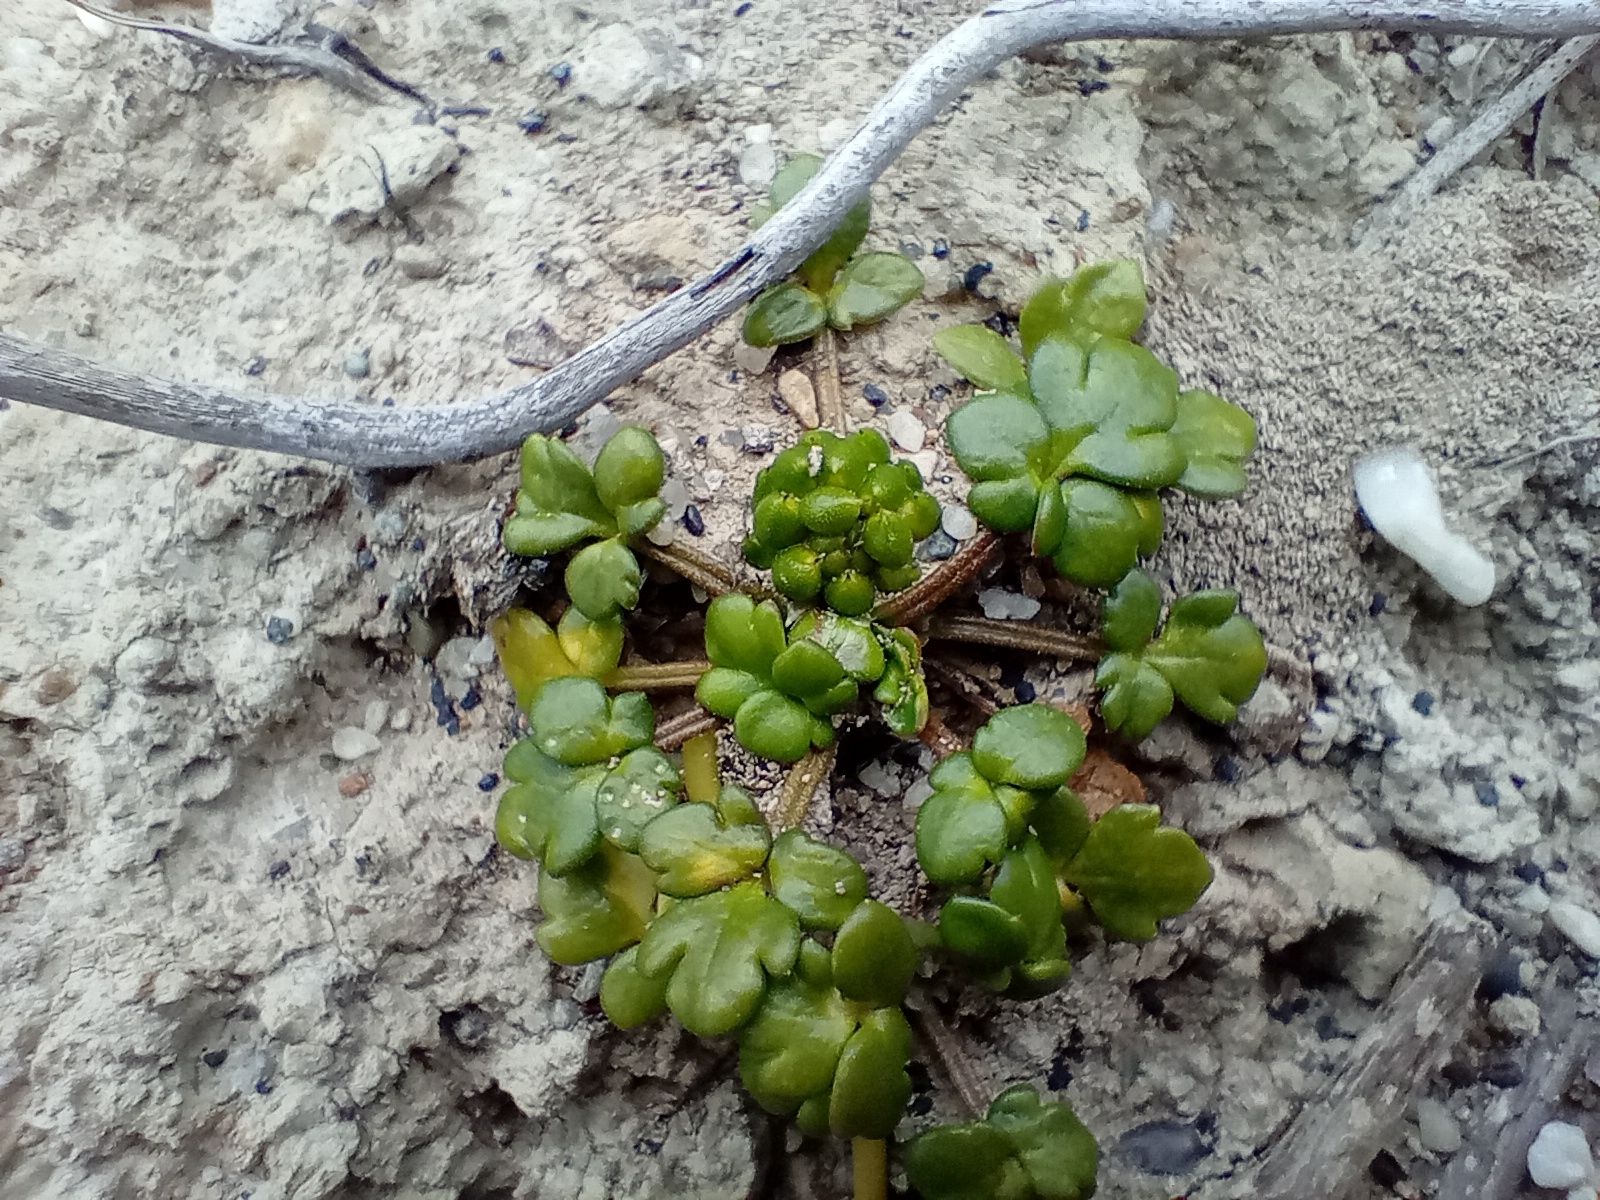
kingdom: Plantae
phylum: Tracheophyta
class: Magnoliopsida
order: Ranunculales
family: Ranunculaceae
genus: Ranunculus
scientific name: Ranunculus acaulis
